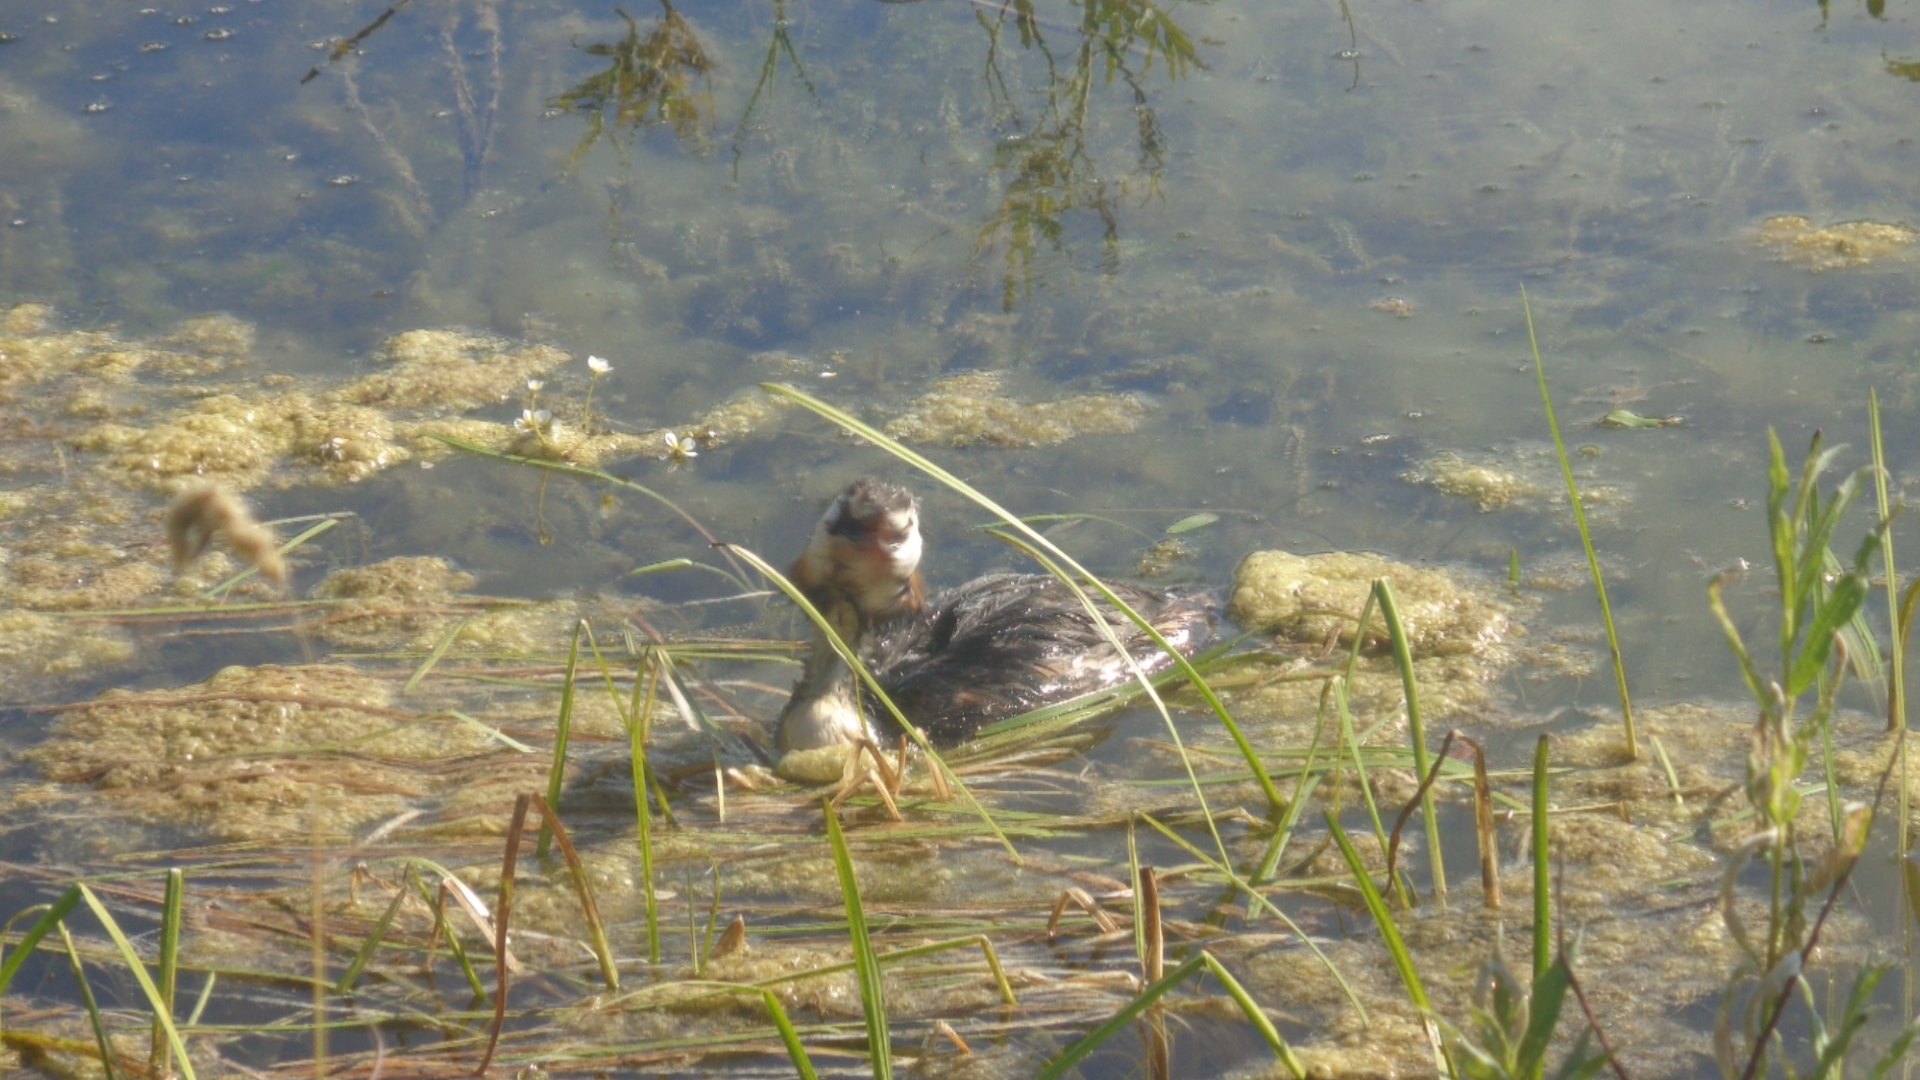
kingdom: Animalia
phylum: Chordata
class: Aves
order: Podicipediformes
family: Podicipedidae
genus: Podiceps
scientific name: Podiceps cristatus
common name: Great crested grebe
